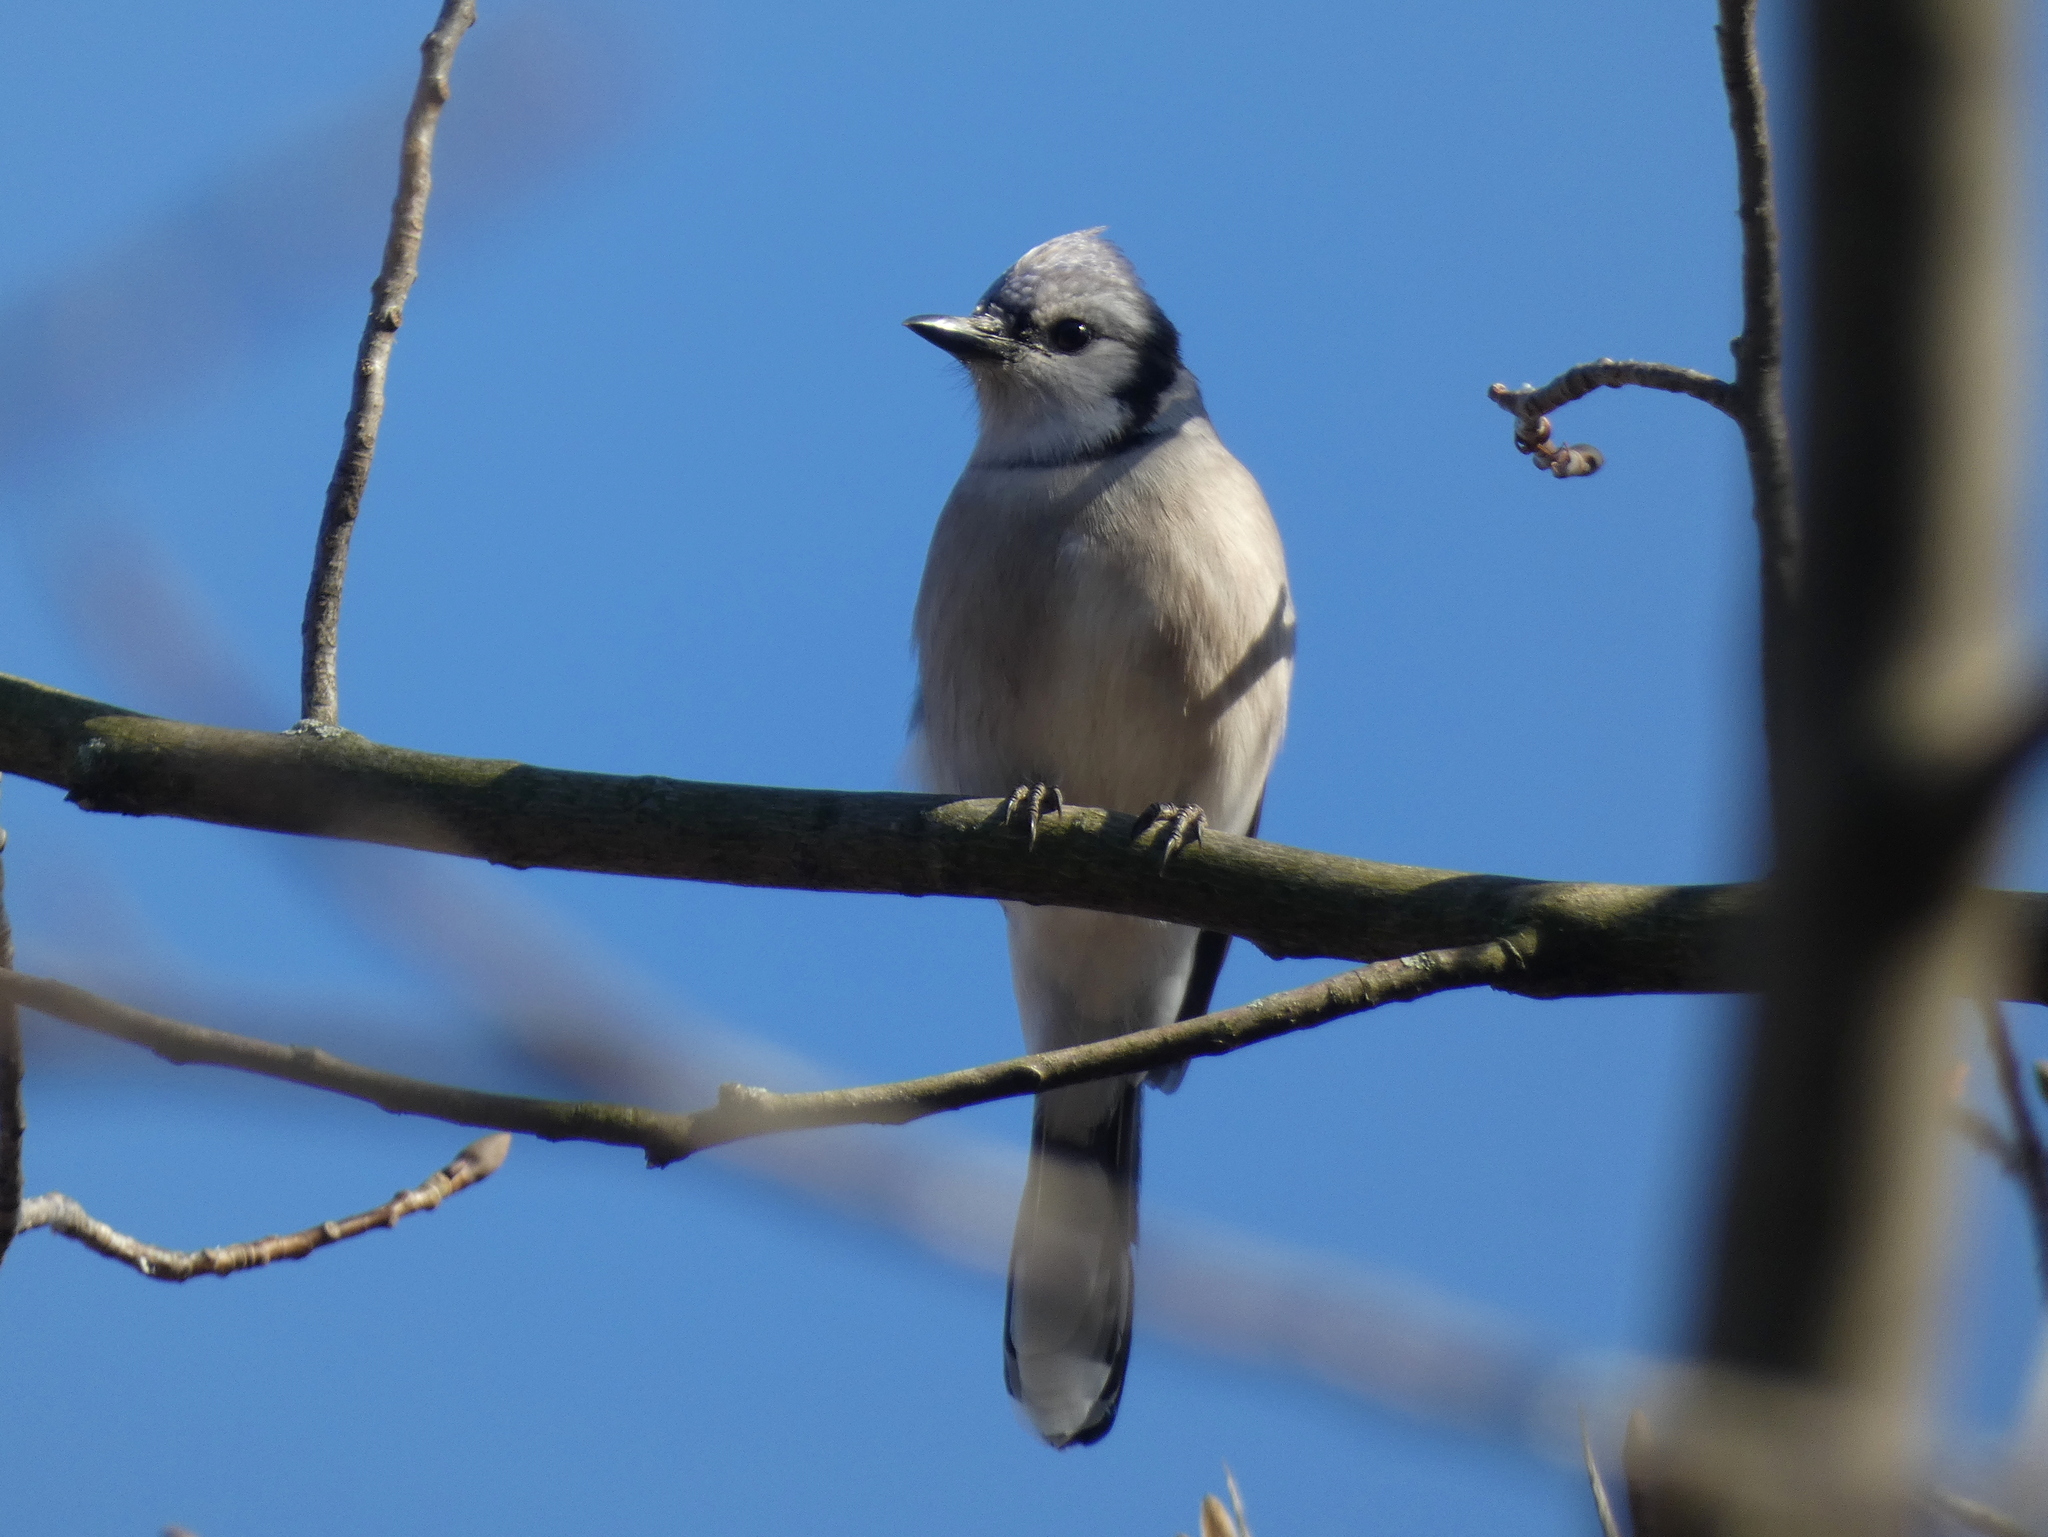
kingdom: Animalia
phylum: Chordata
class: Aves
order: Passeriformes
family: Corvidae
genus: Cyanocitta
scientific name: Cyanocitta cristata
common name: Blue jay
